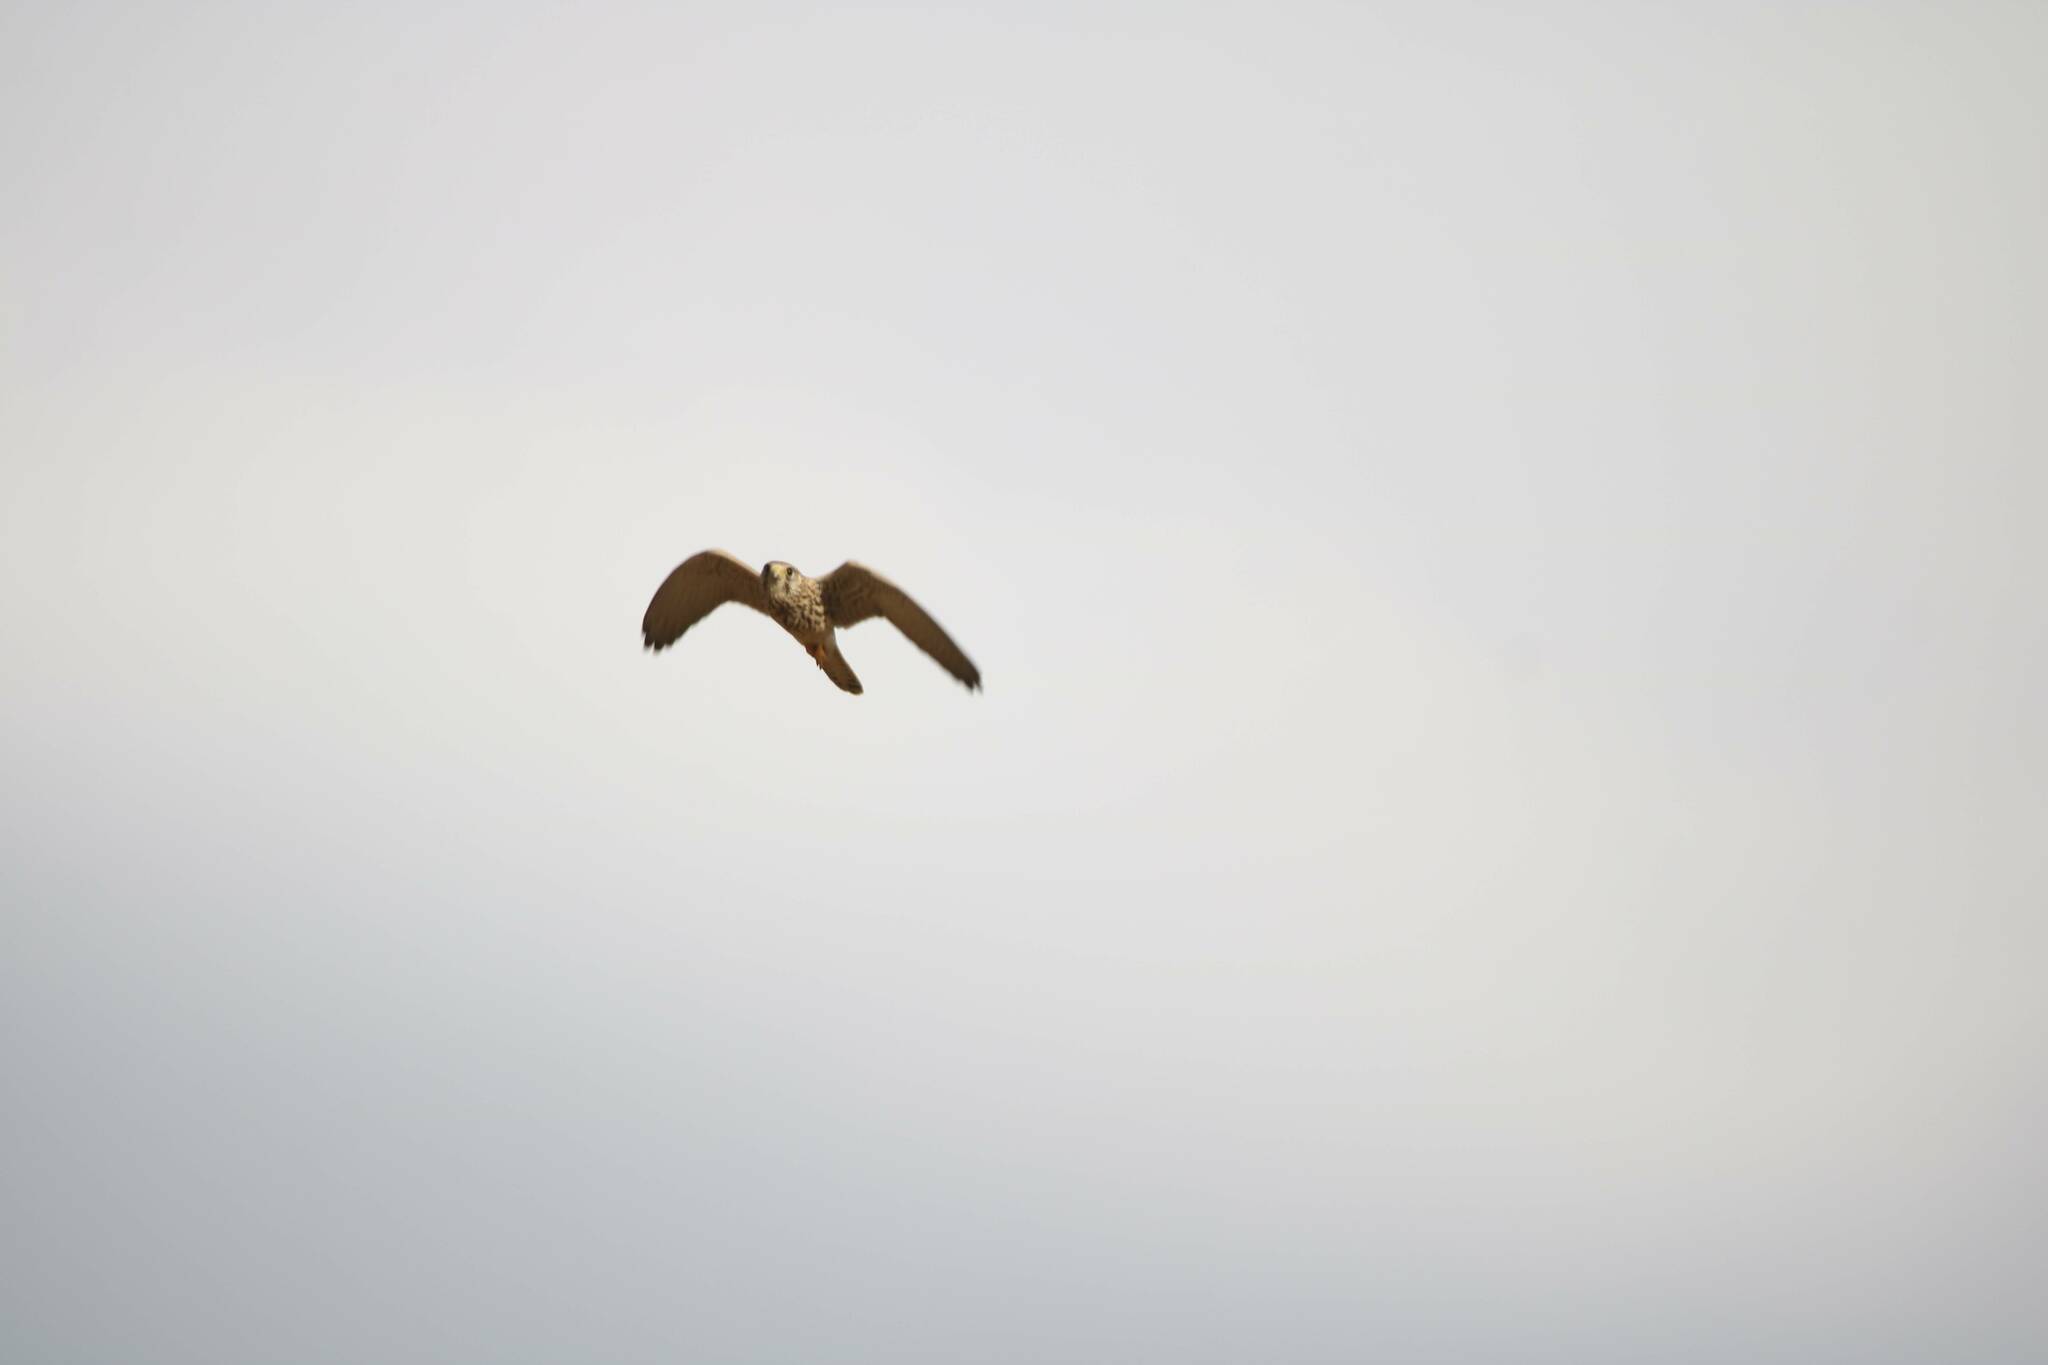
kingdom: Animalia
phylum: Chordata
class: Aves
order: Falconiformes
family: Falconidae
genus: Falco
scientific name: Falco tinnunculus
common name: Common kestrel
